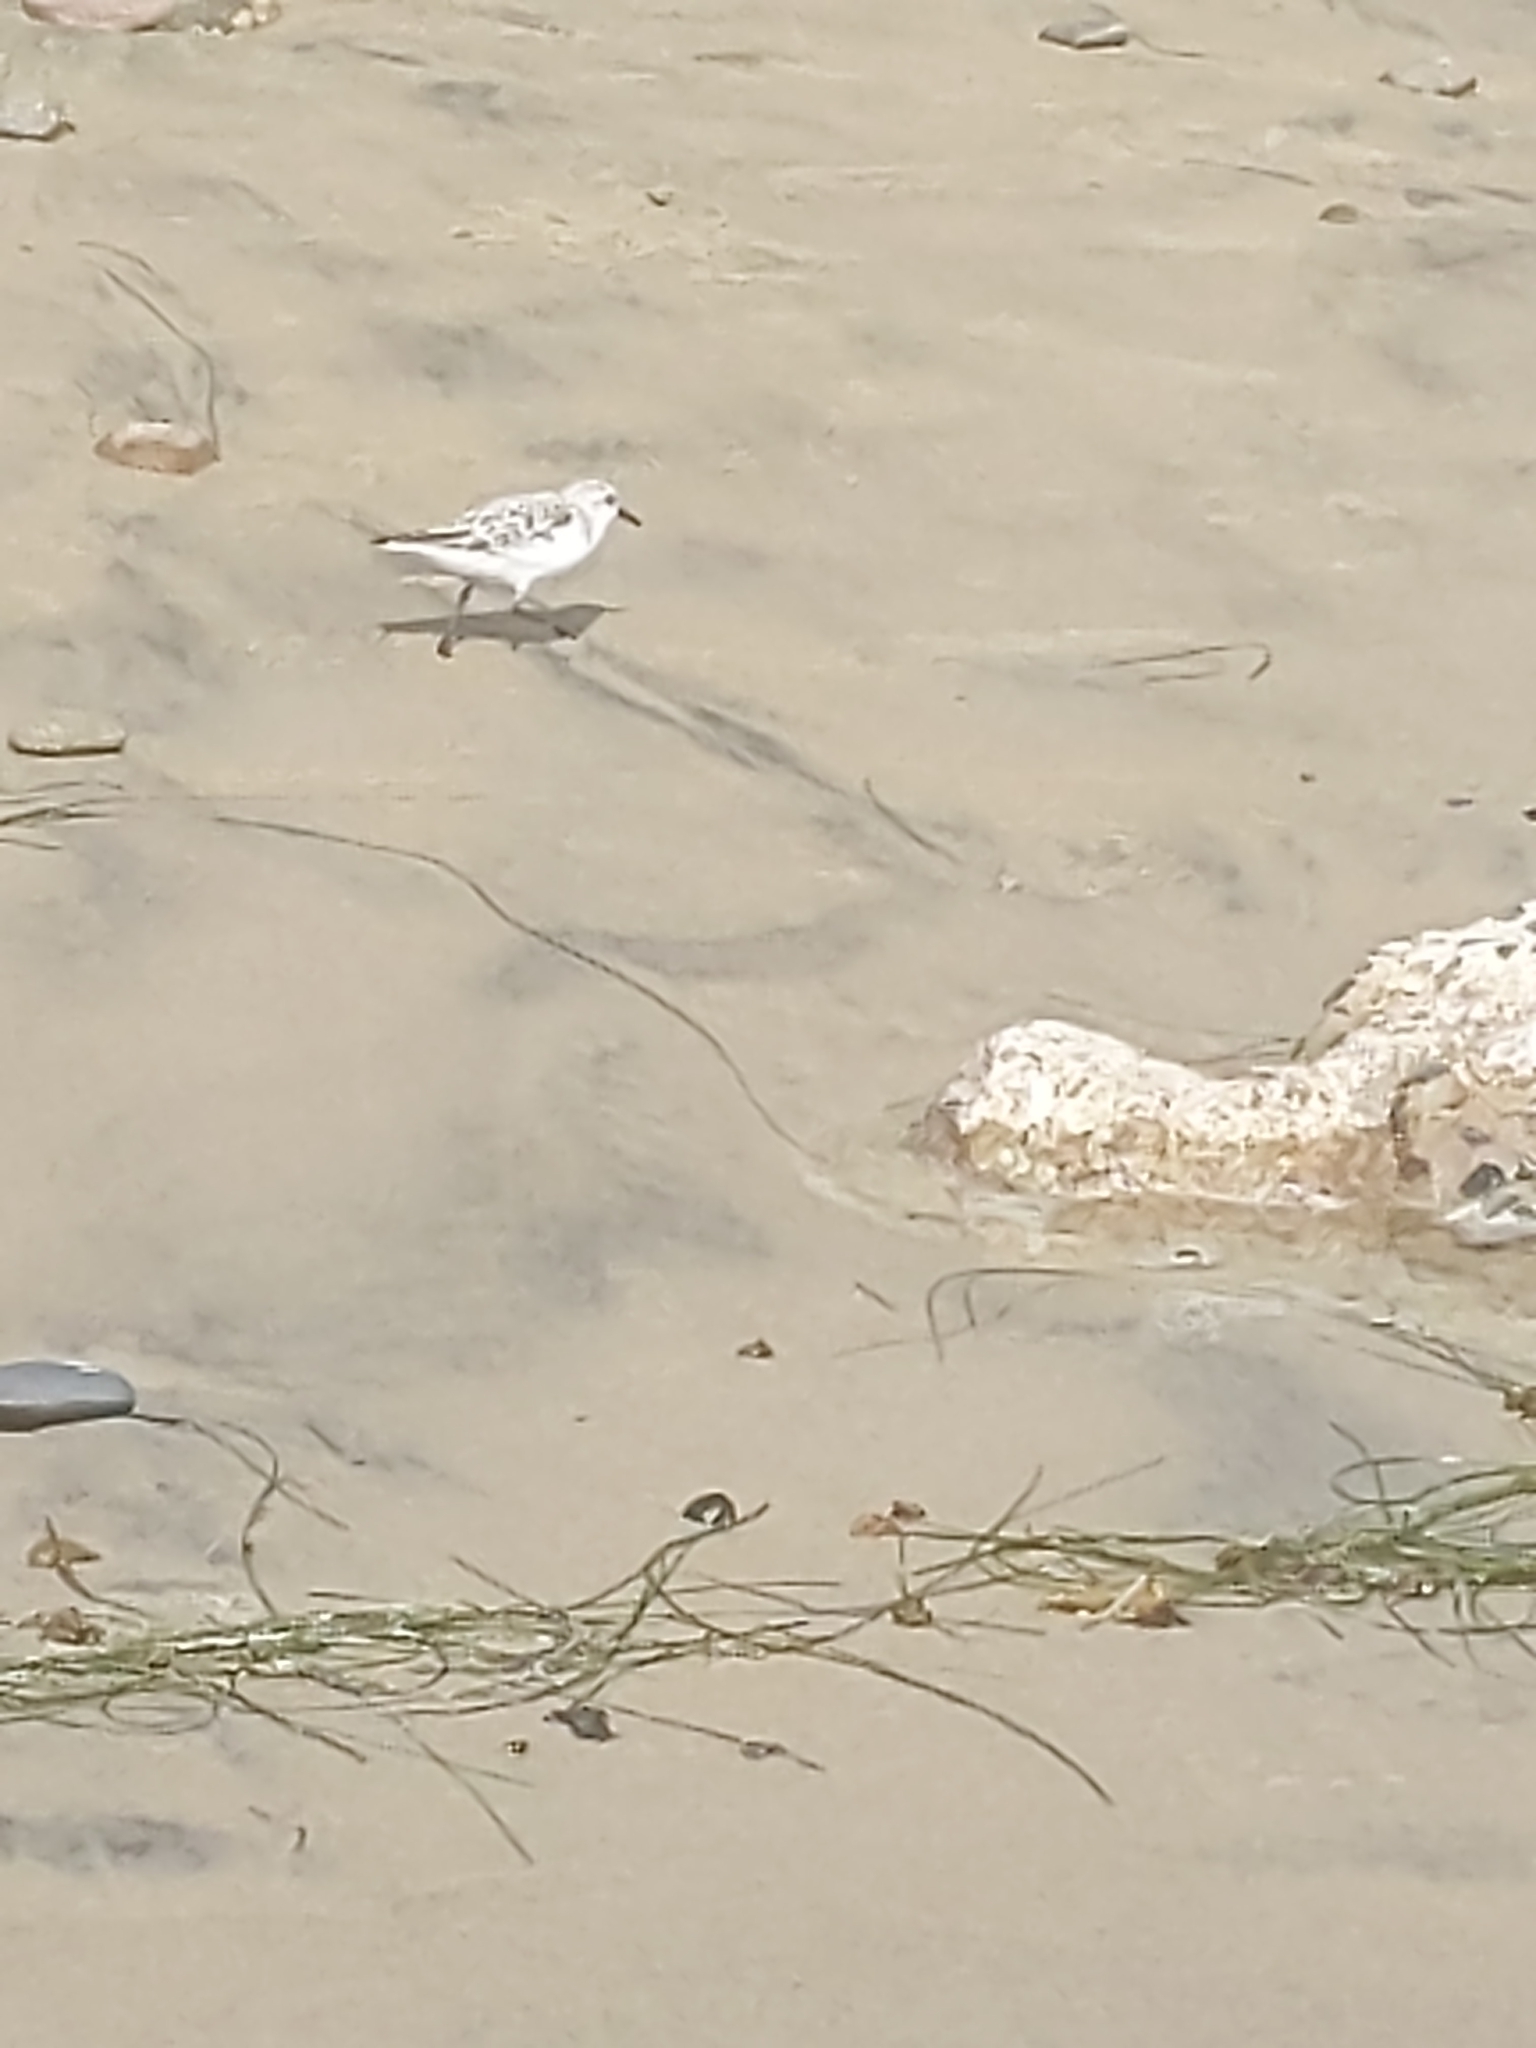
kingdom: Animalia
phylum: Chordata
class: Aves
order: Charadriiformes
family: Scolopacidae
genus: Calidris
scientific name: Calidris alba
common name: Sanderling
